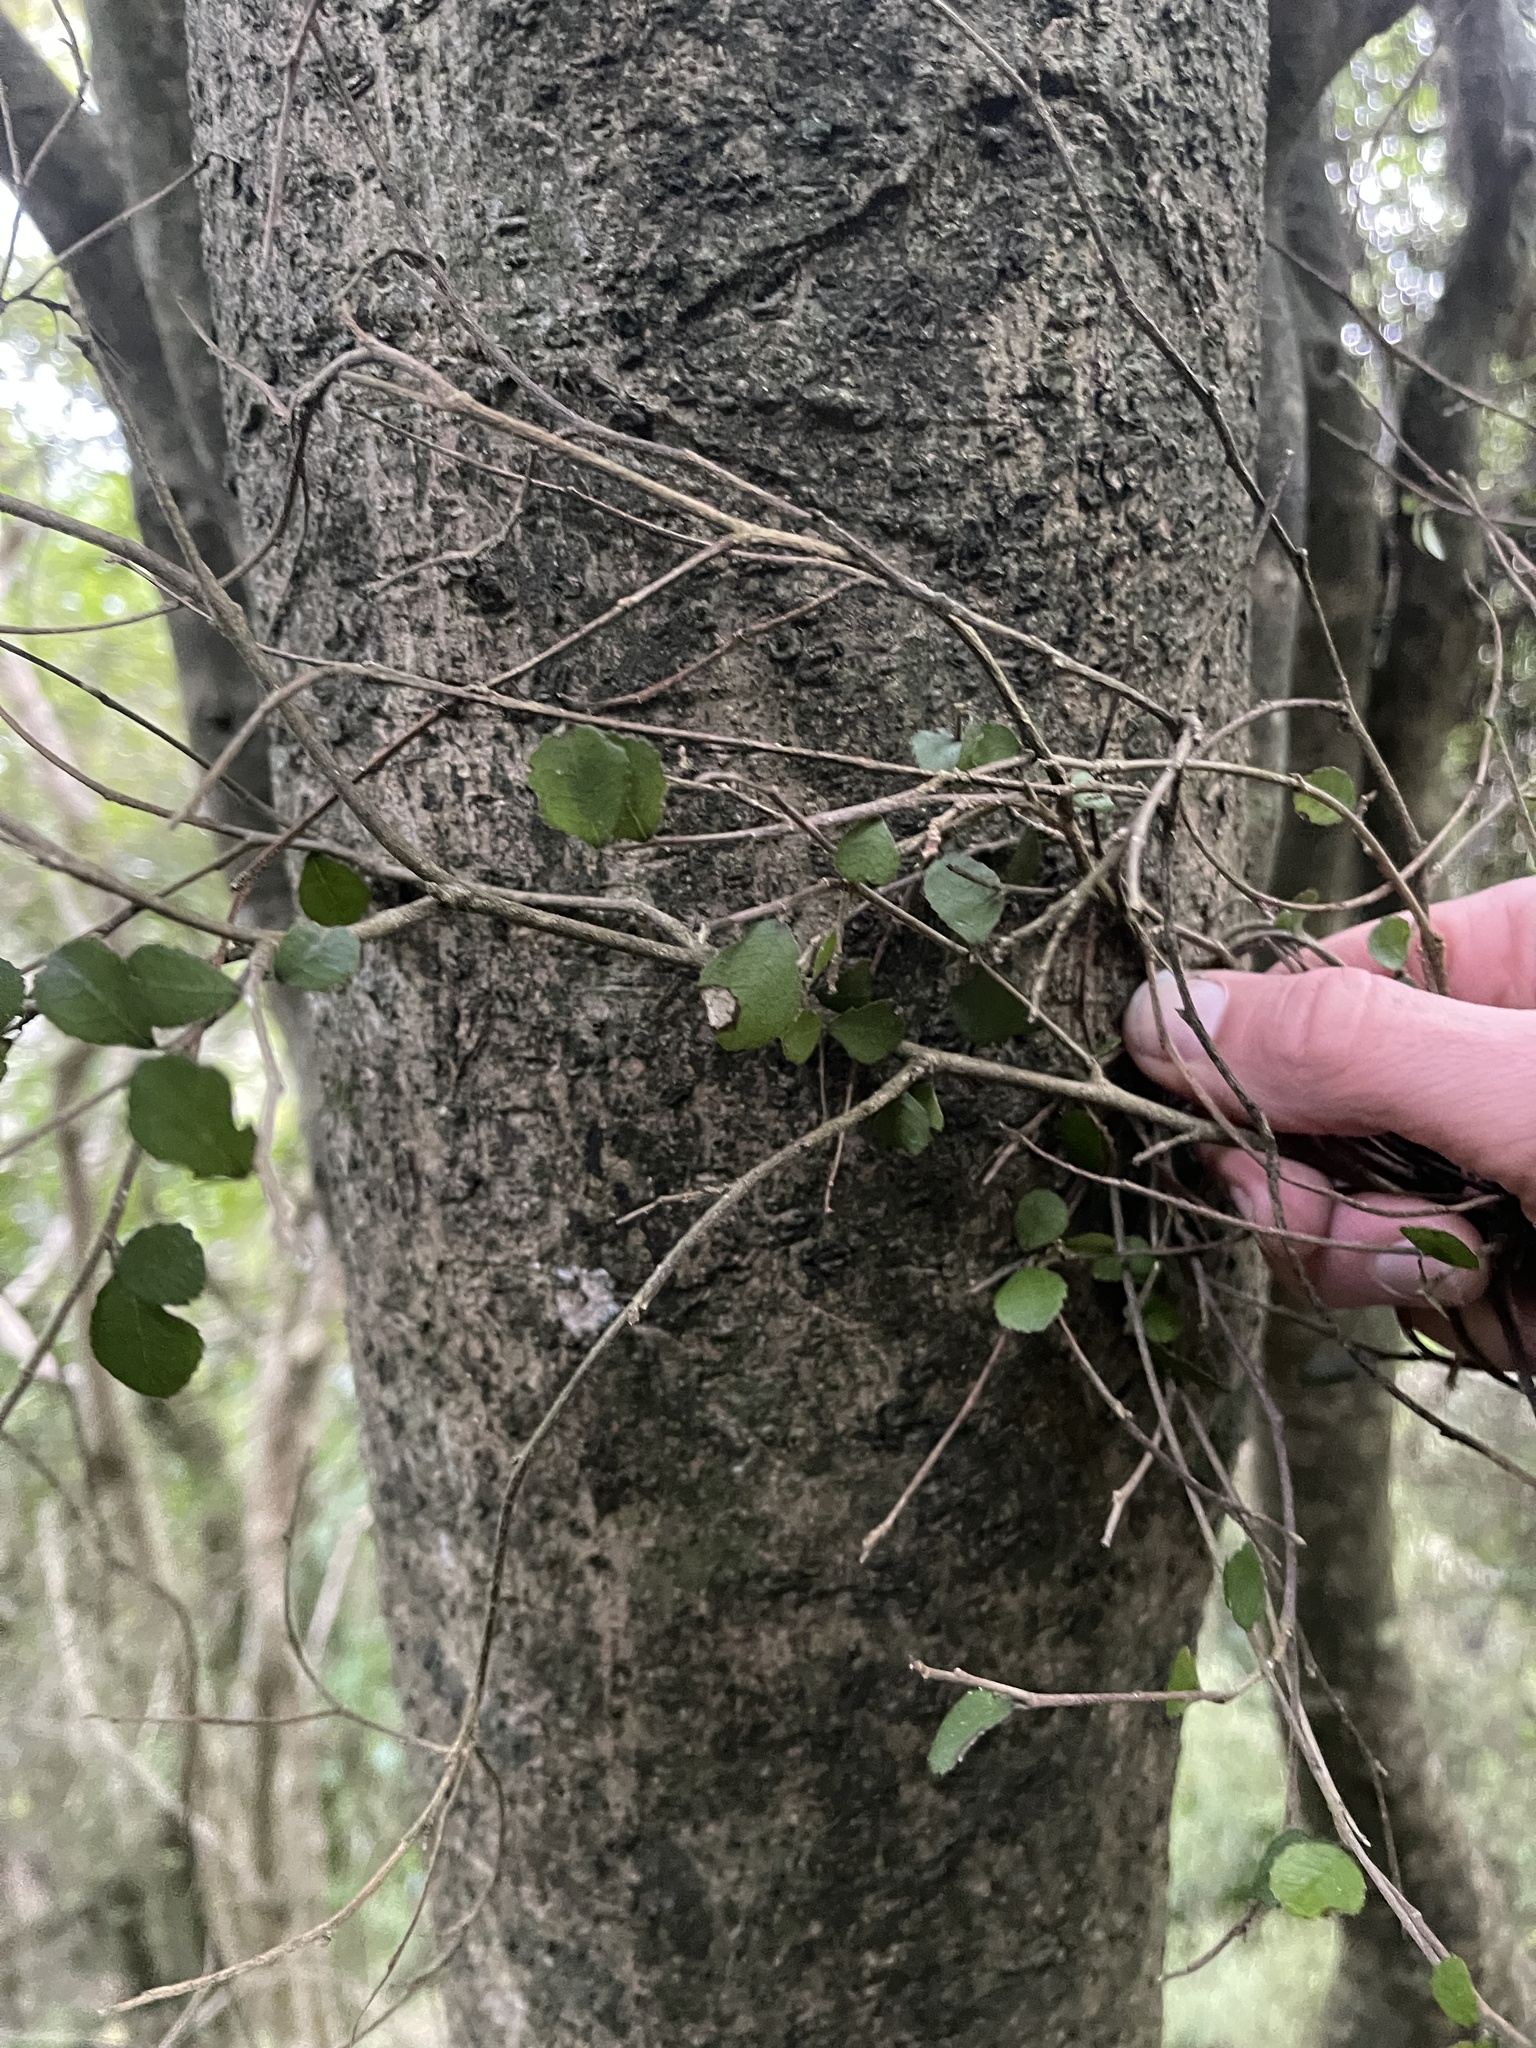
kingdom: Plantae
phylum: Tracheophyta
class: Magnoliopsida
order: Rosales
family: Moraceae
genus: Paratrophis
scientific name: Paratrophis microphylla
